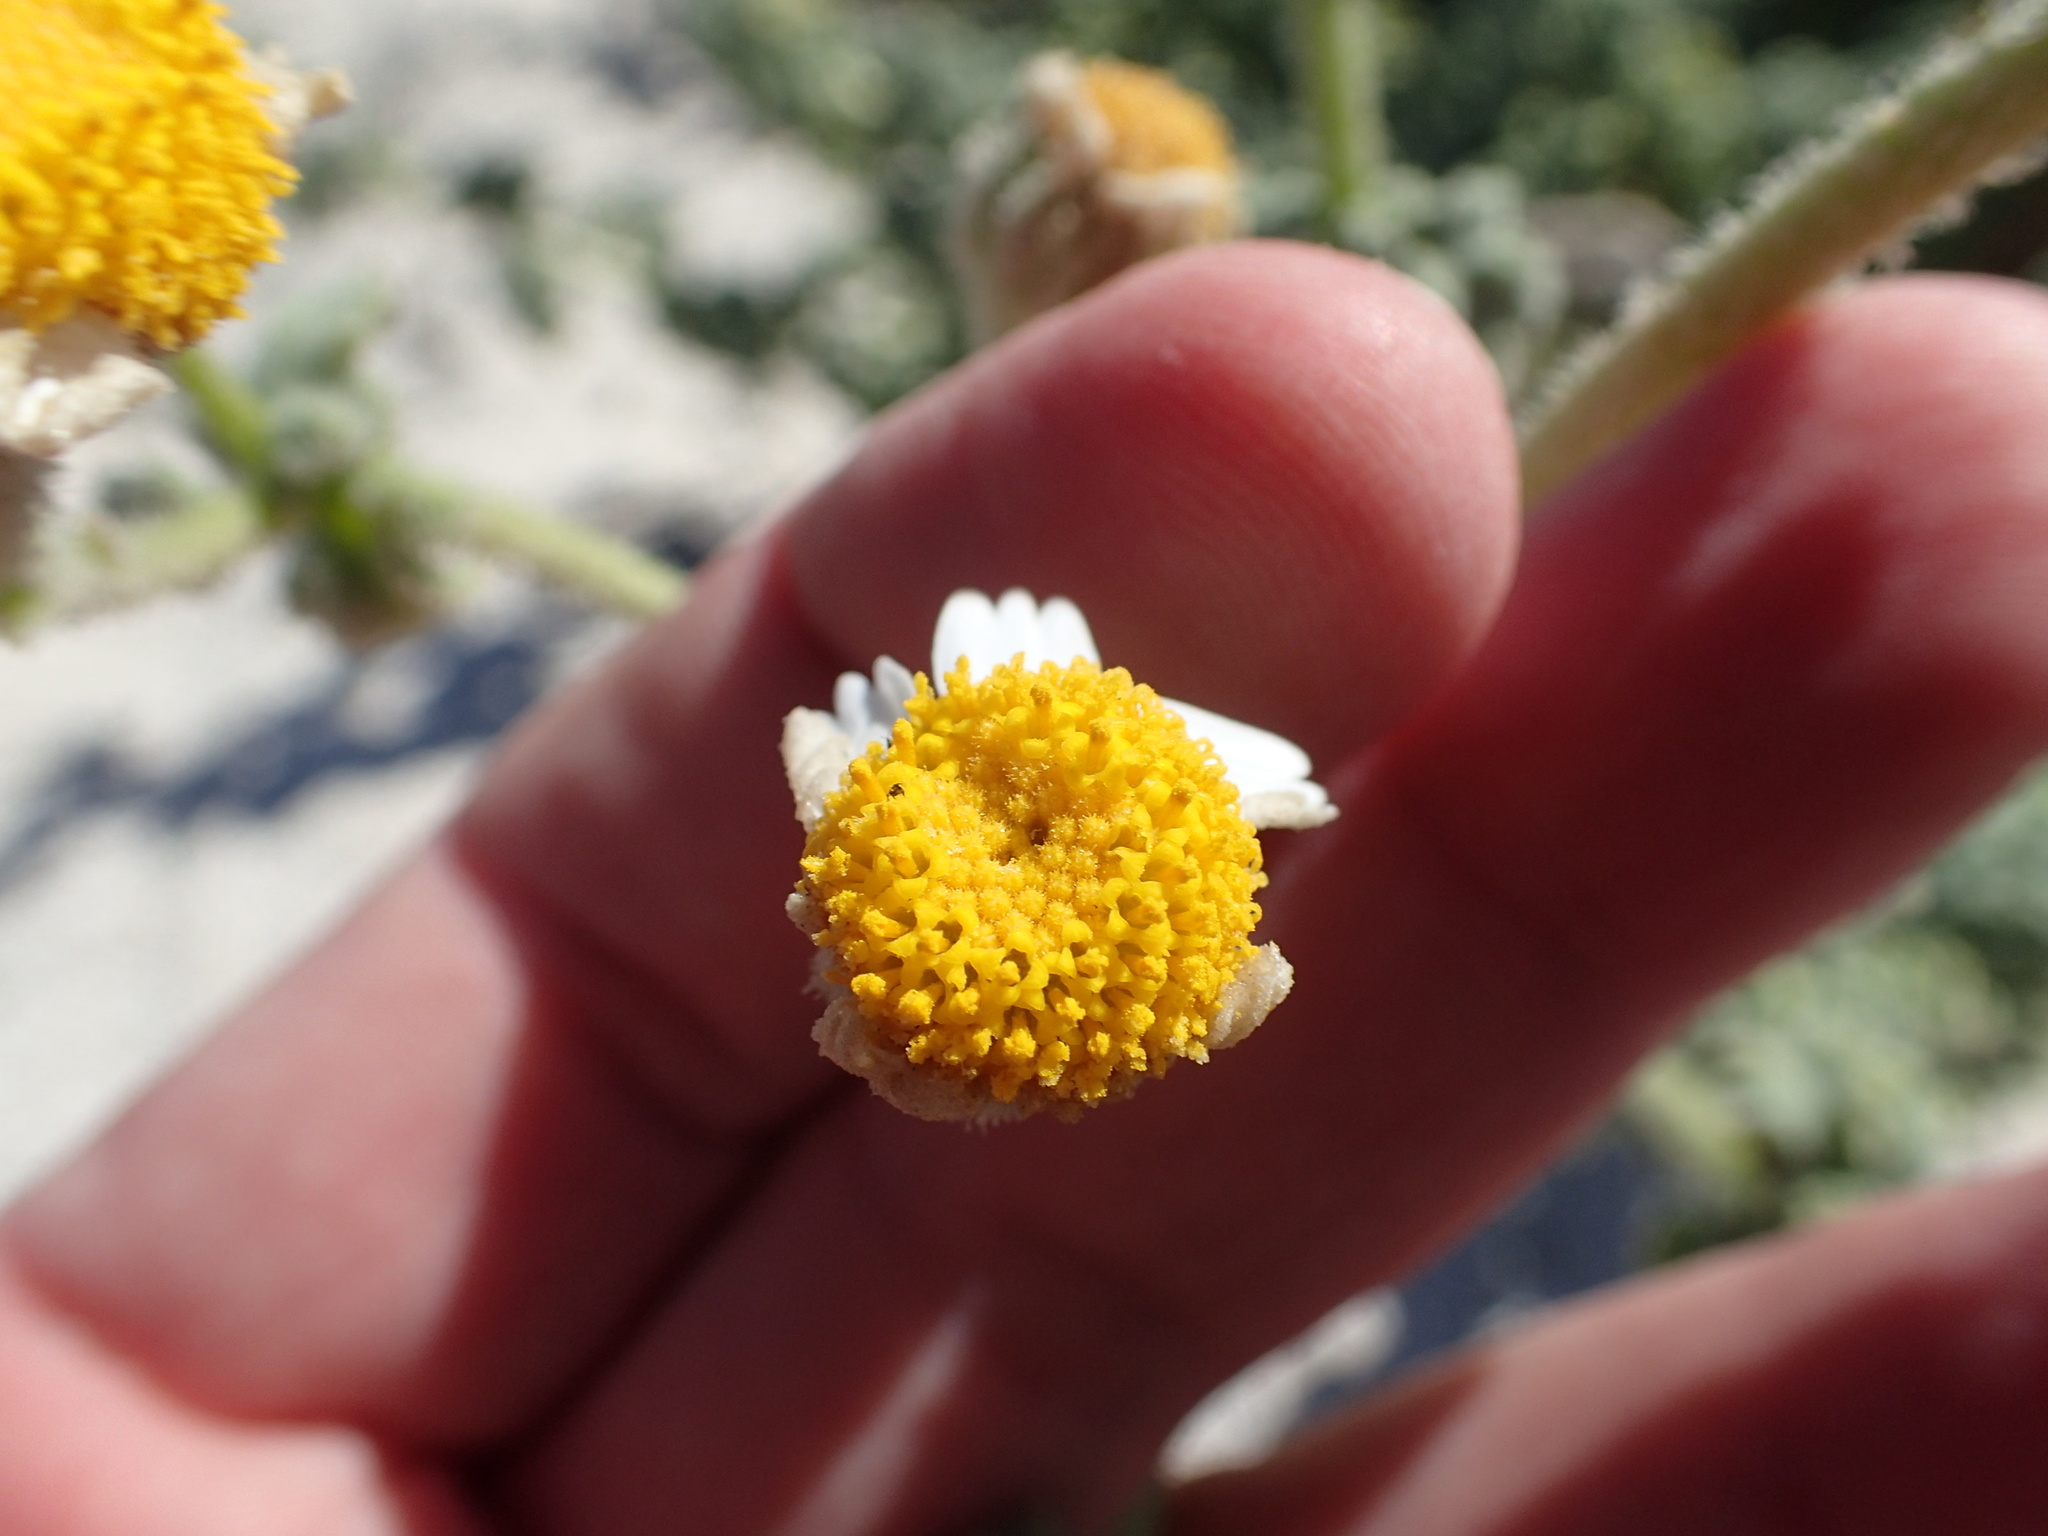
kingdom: Plantae
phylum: Tracheophyta
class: Magnoliopsida
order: Asterales
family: Asteraceae
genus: Perityle
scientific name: Perityle crassifolia
